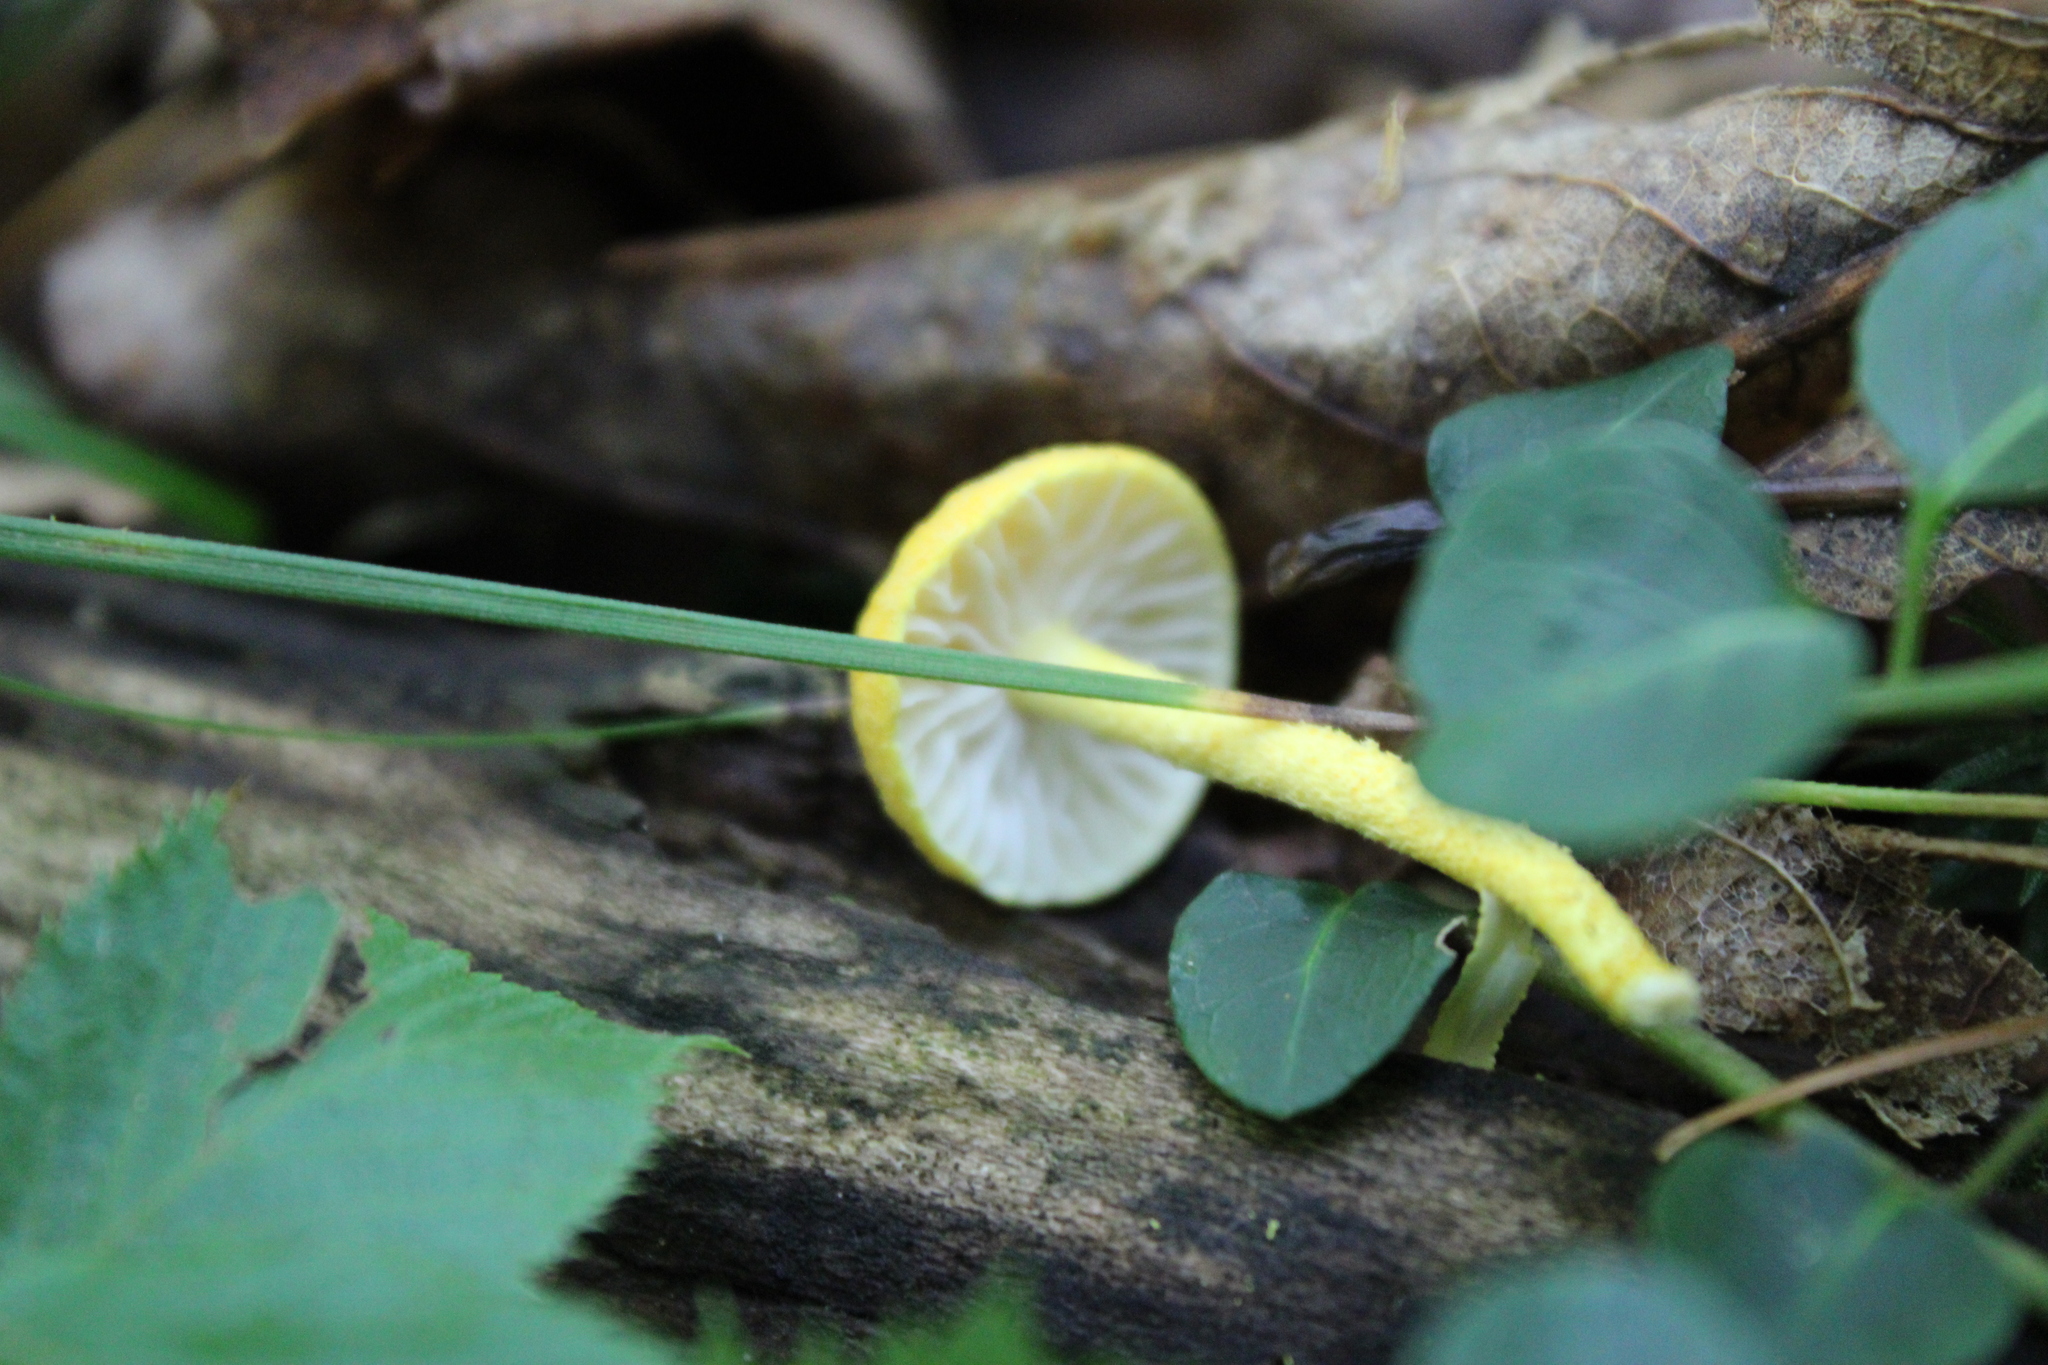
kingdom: Fungi
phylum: Basidiomycota
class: Agaricomycetes
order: Agaricales
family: Physalacriaceae
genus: Cyptotrama
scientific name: Cyptotrama chrysopepla
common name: Golden coincap
